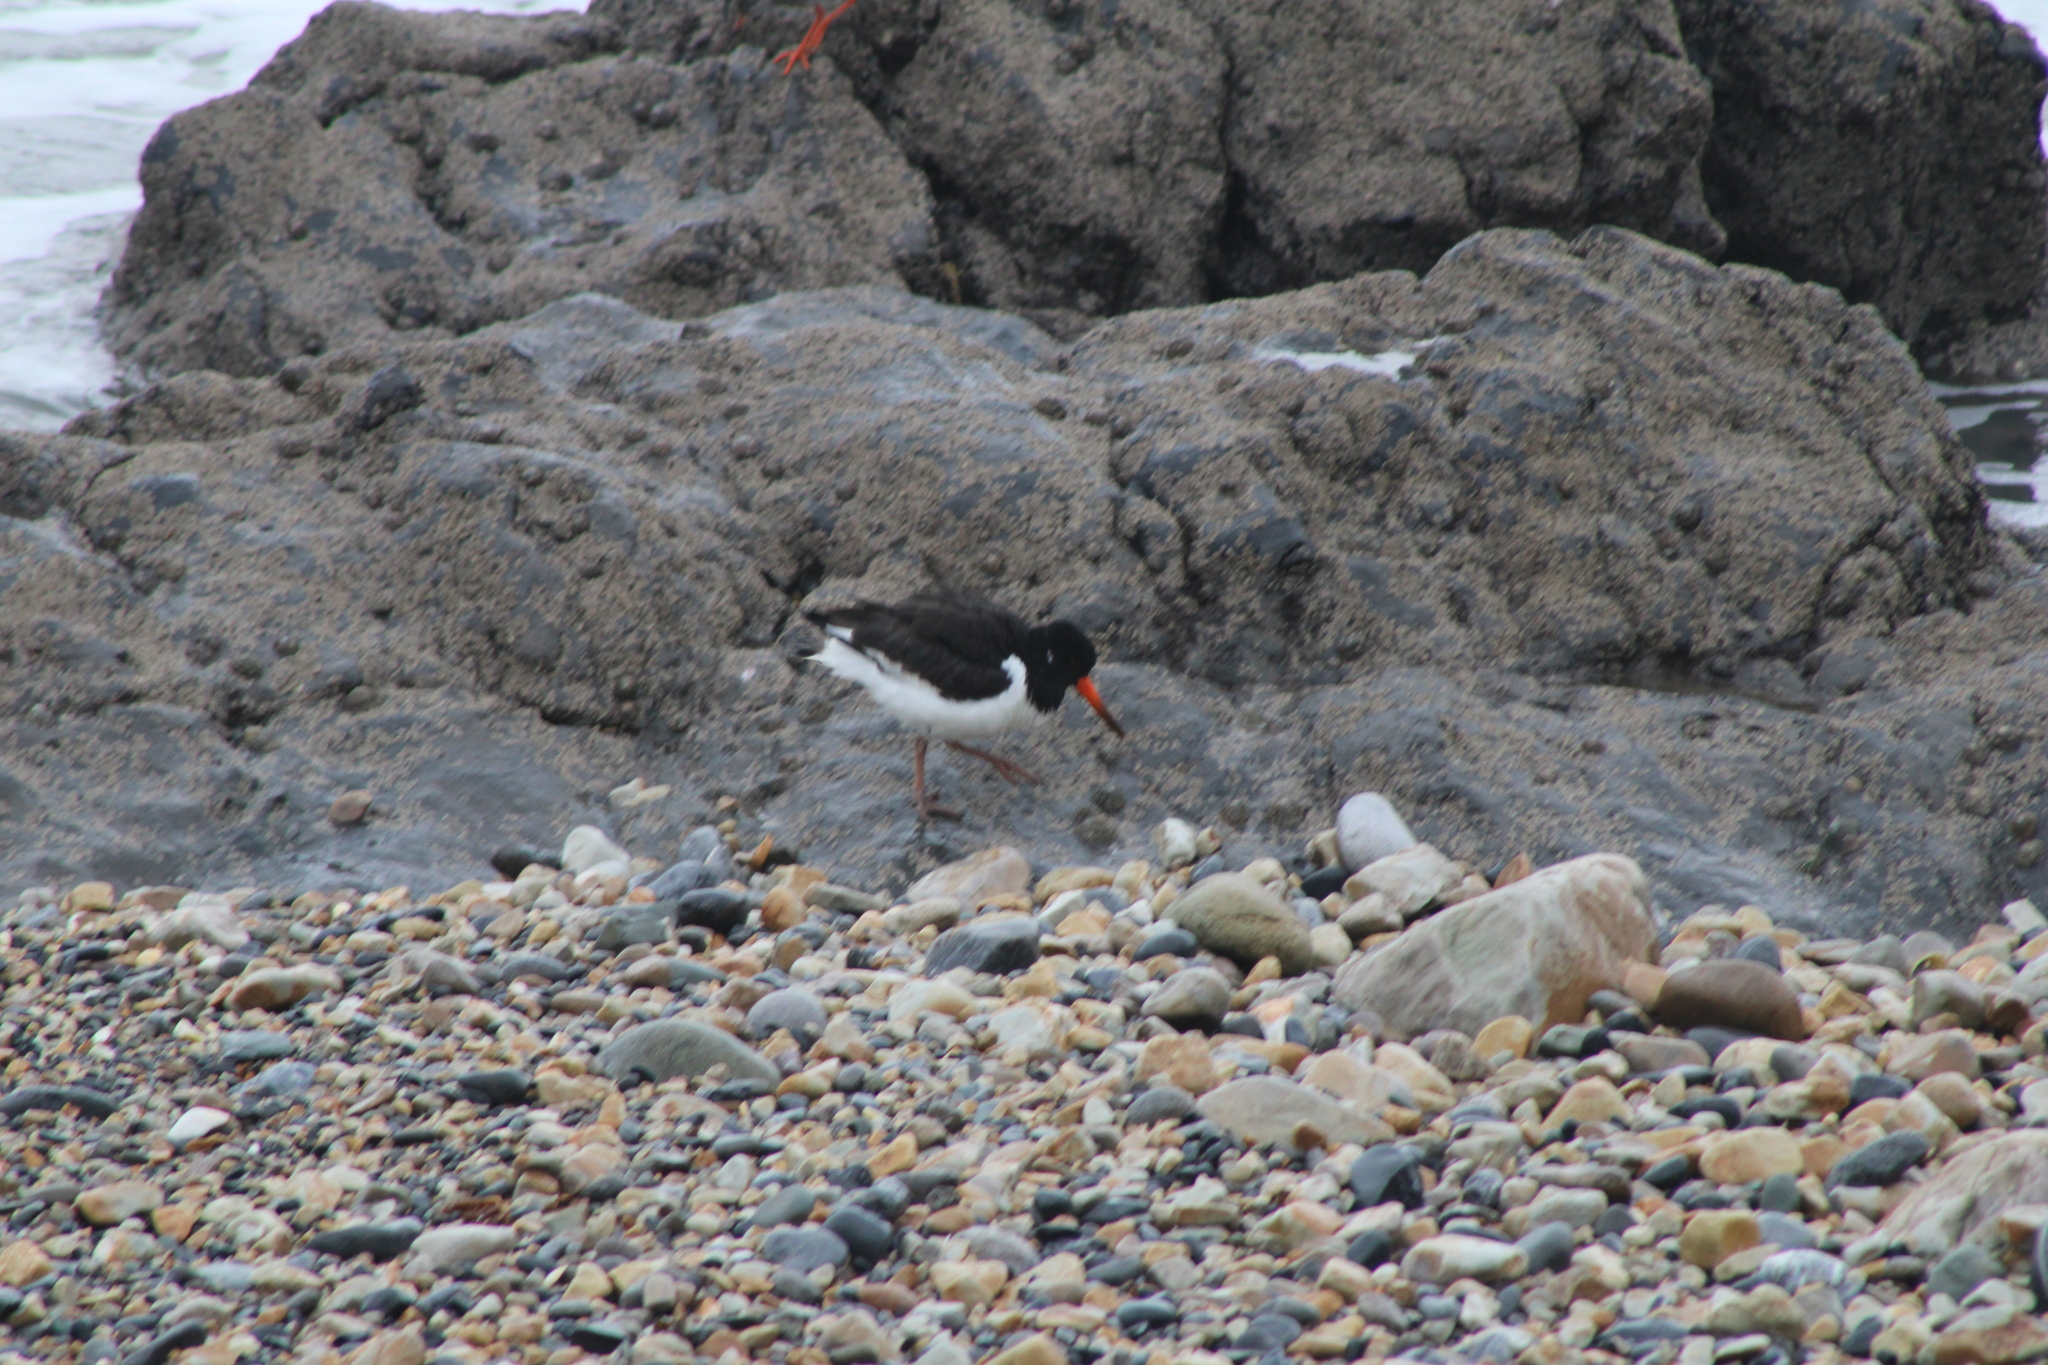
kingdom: Animalia
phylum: Chordata
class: Aves
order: Charadriiformes
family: Haematopodidae
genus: Haematopus
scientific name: Haematopus ostralegus
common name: Eurasian oystercatcher
